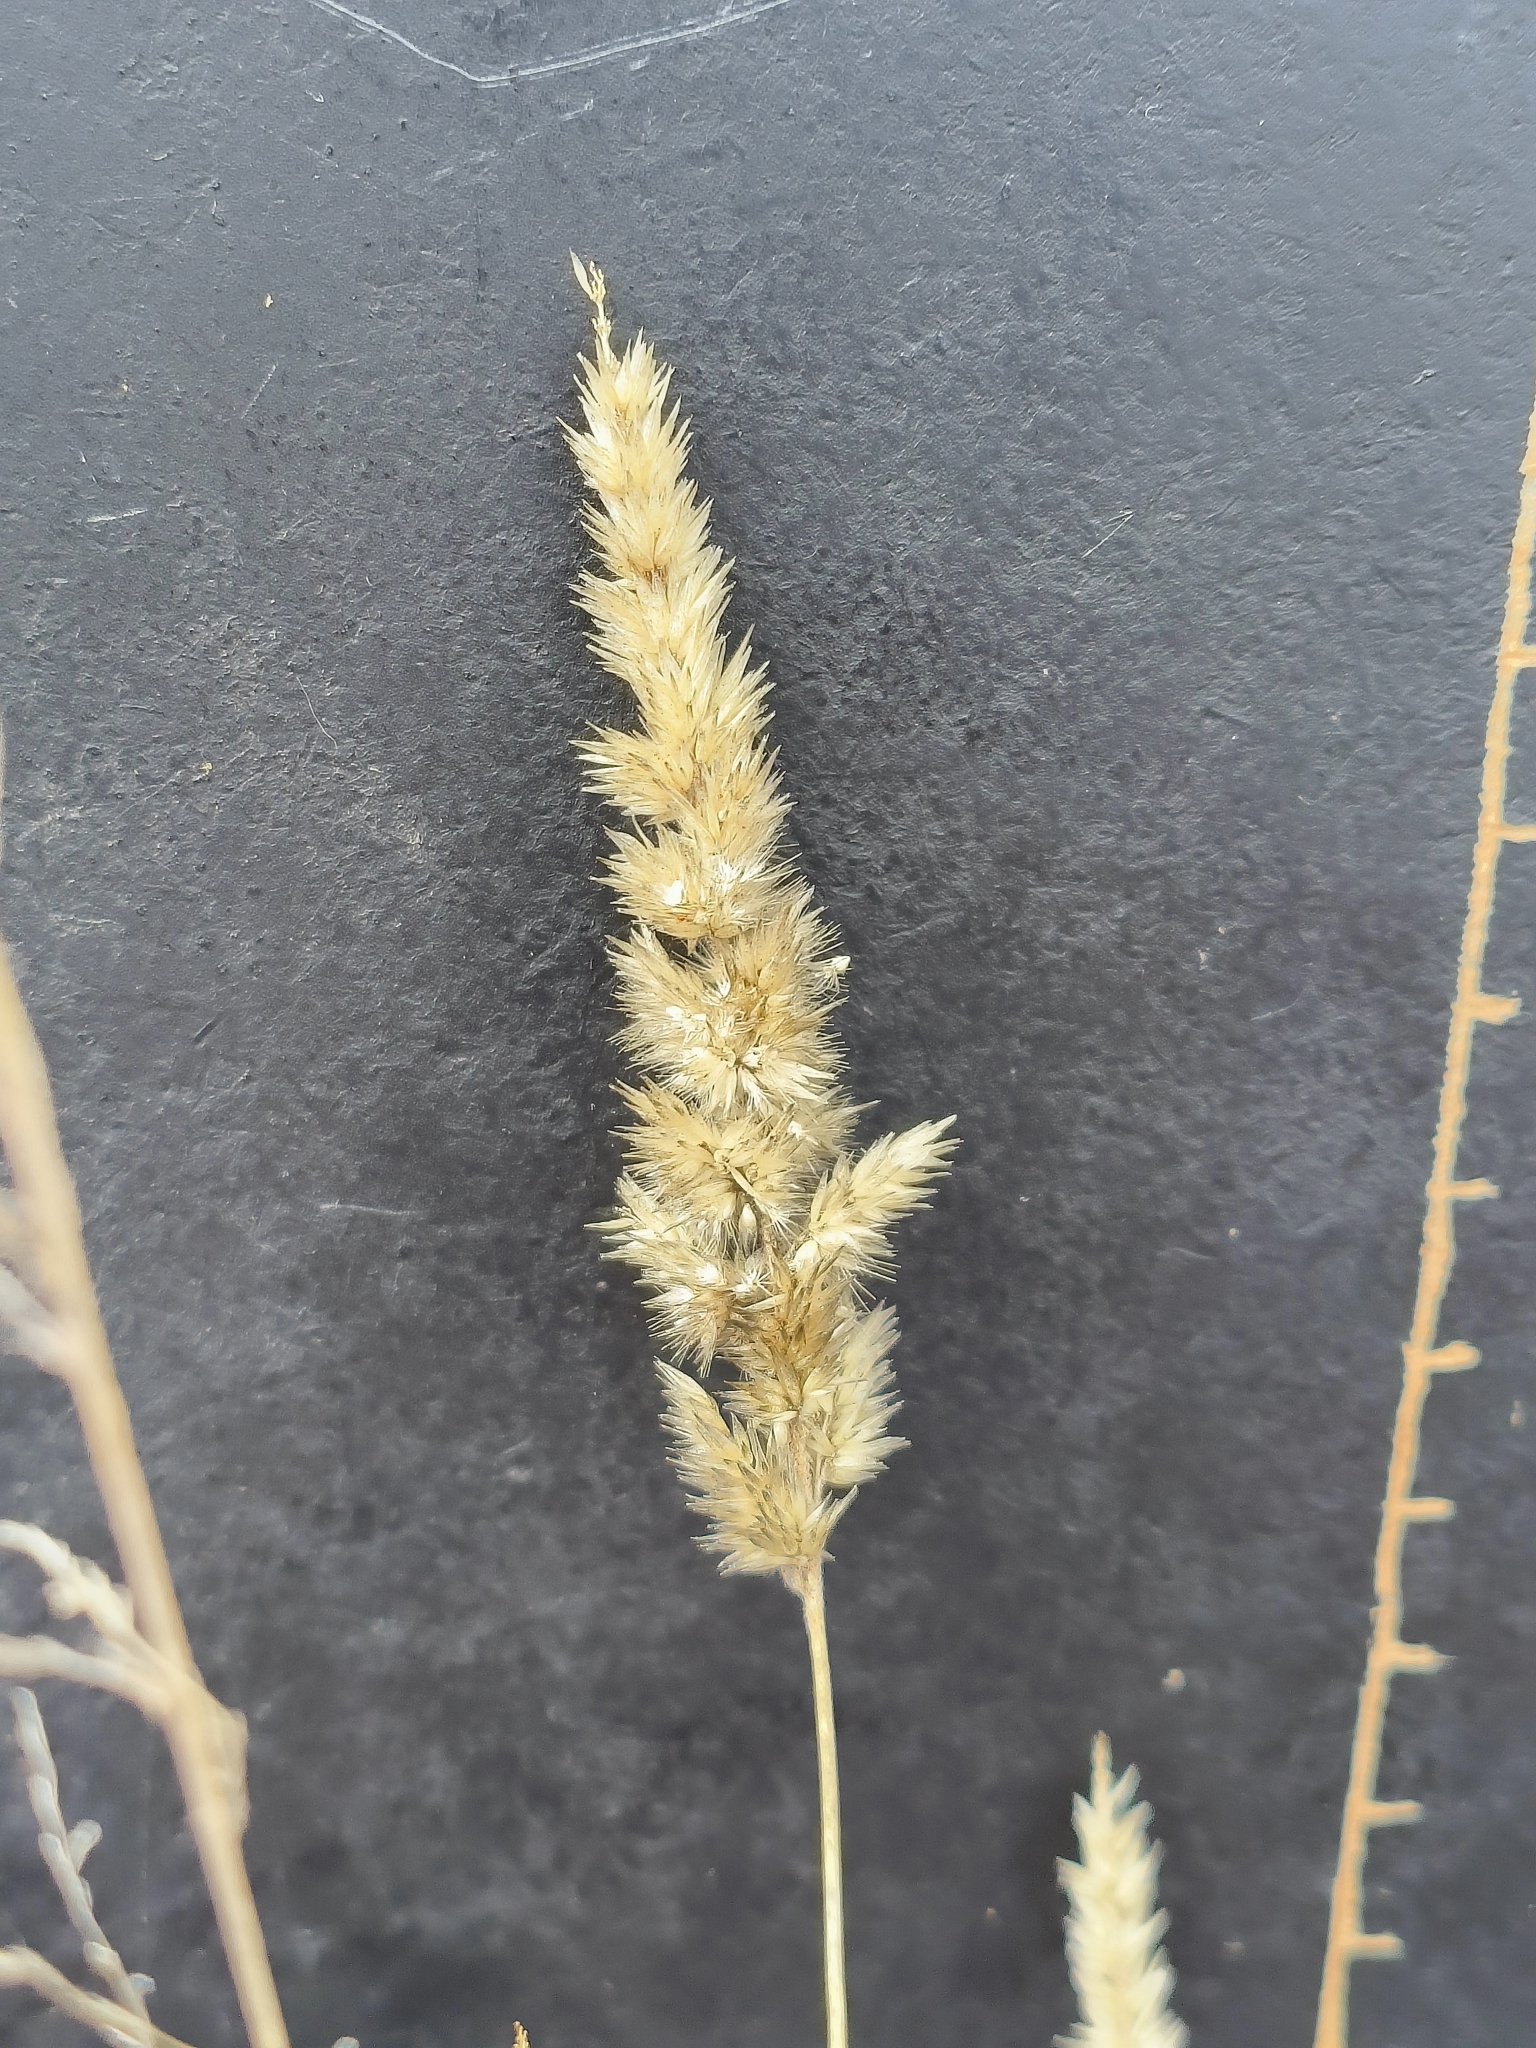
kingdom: Plantae
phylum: Tracheophyta
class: Liliopsida
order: Poales
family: Poaceae
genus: Enneapogon
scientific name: Enneapogon cenchroides
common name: Soft feather pappusgrass
